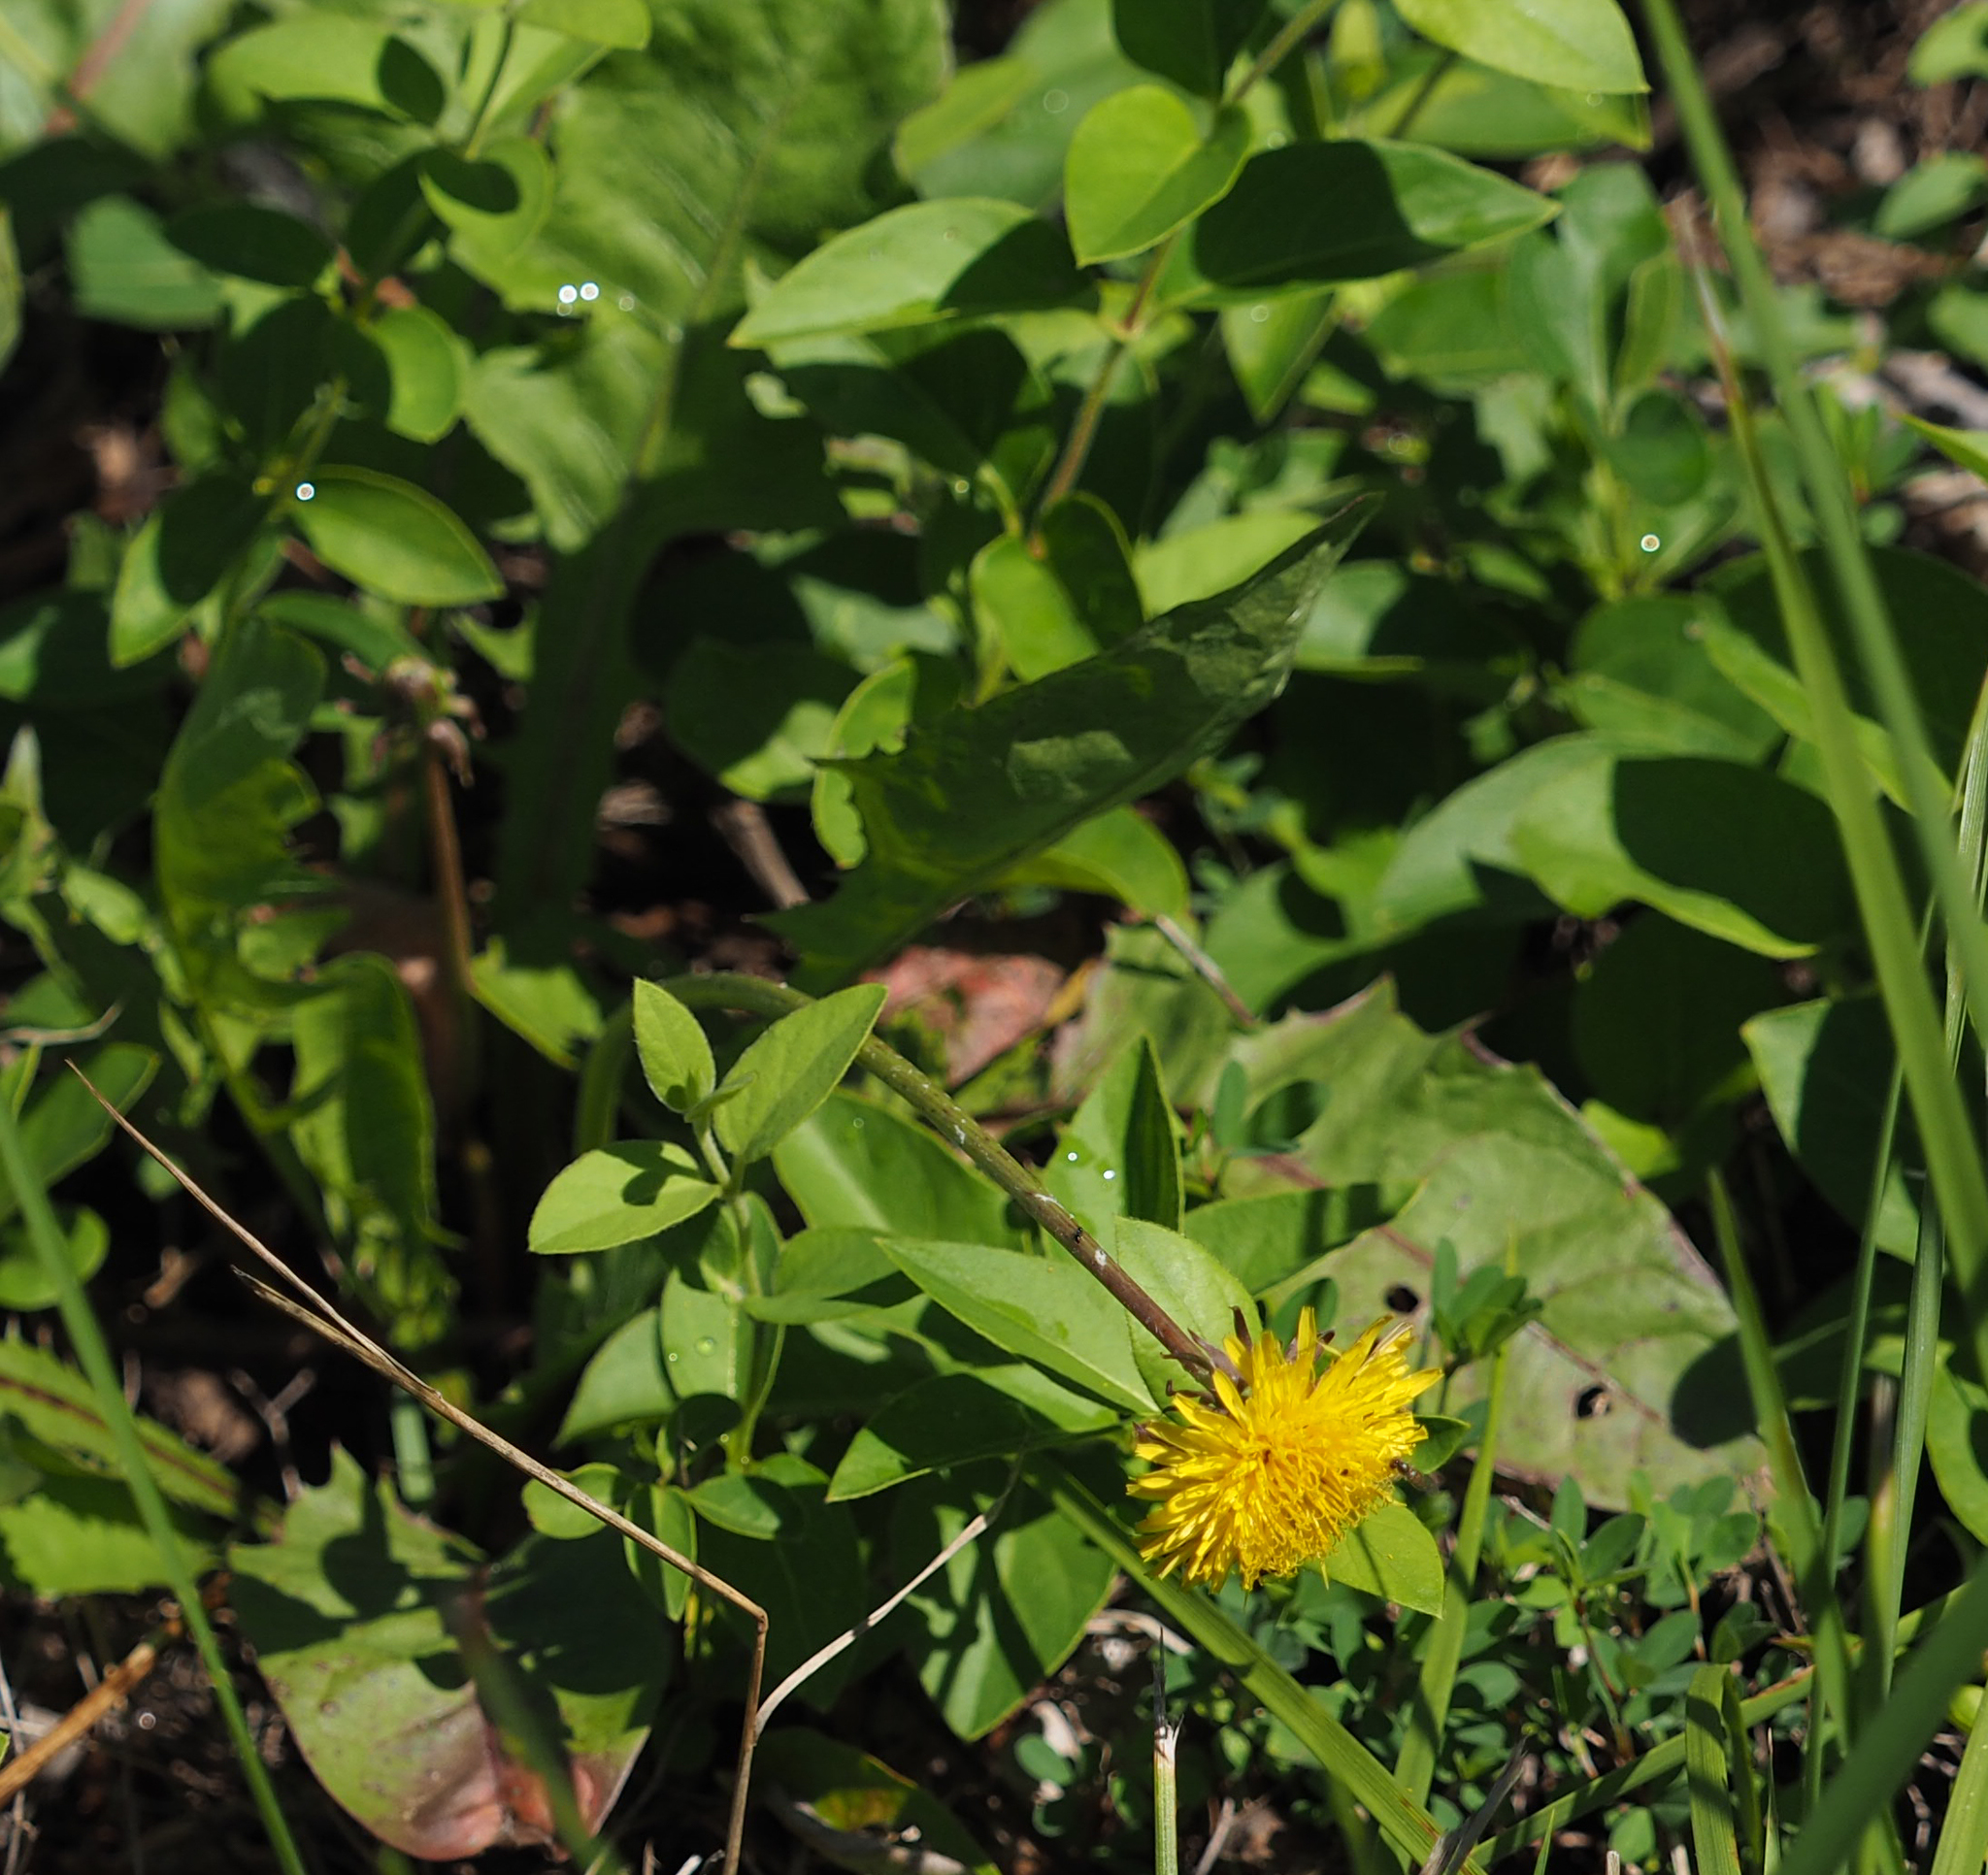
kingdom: Plantae
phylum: Tracheophyta
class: Magnoliopsida
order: Asterales
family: Asteraceae
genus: Taraxacum
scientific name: Taraxacum officinale
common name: Common dandelion
